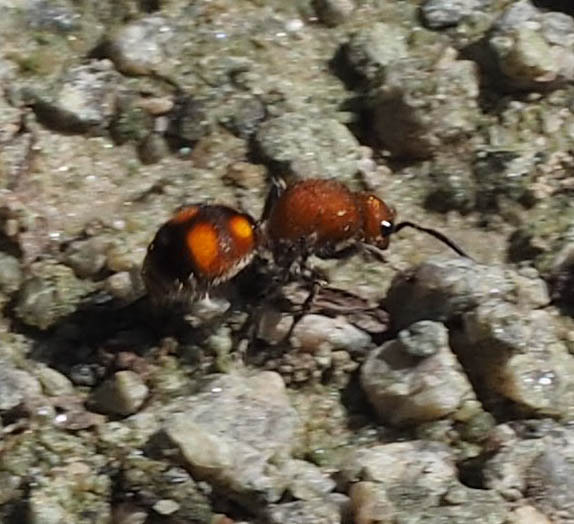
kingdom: Animalia
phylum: Arthropoda
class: Insecta
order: Hymenoptera
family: Mutillidae
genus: Dasymutilla
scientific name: Dasymutilla
